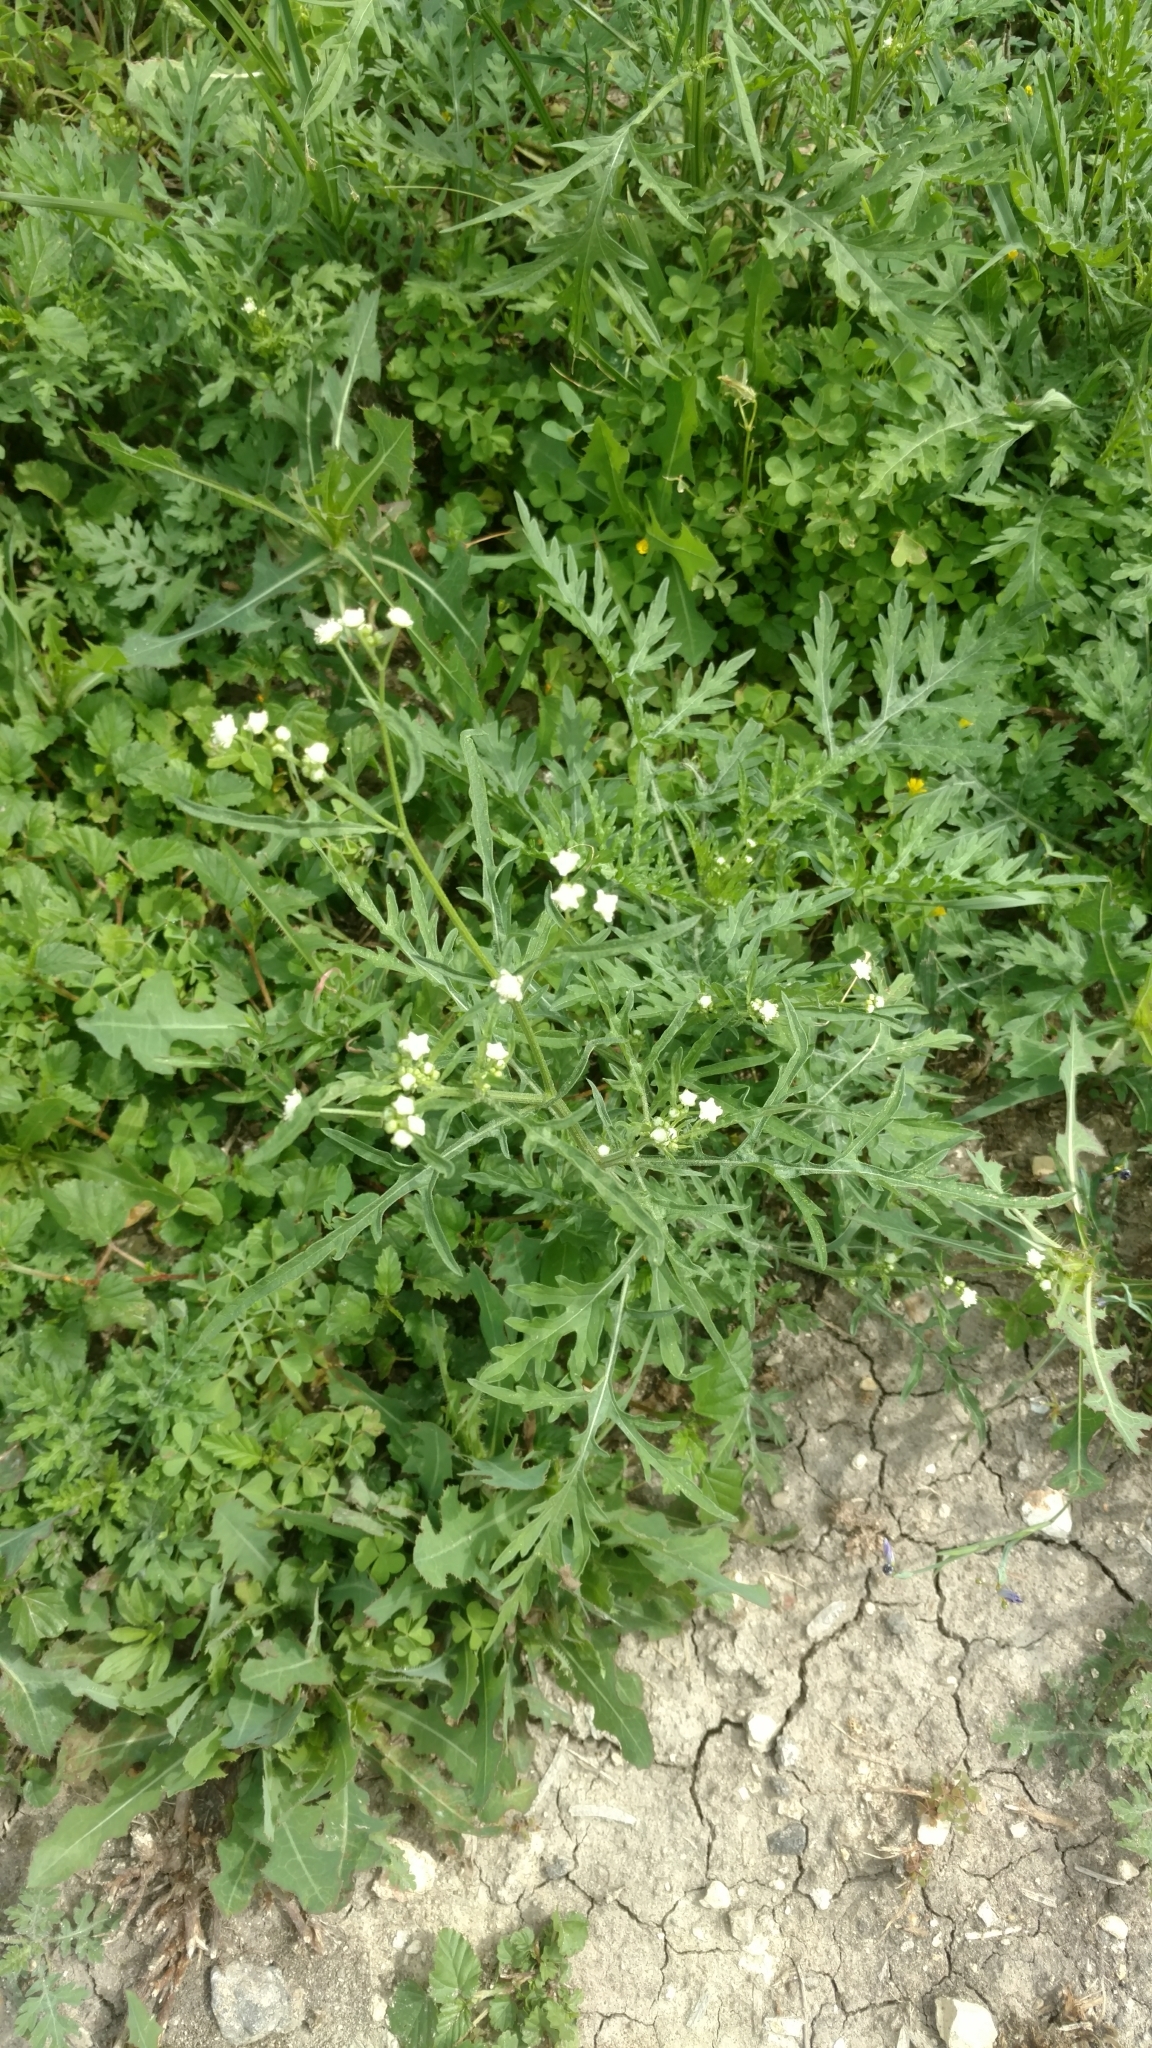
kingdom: Plantae
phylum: Tracheophyta
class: Magnoliopsida
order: Asterales
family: Asteraceae
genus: Parthenium
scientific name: Parthenium hysterophorus
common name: Santa maria feverfew
